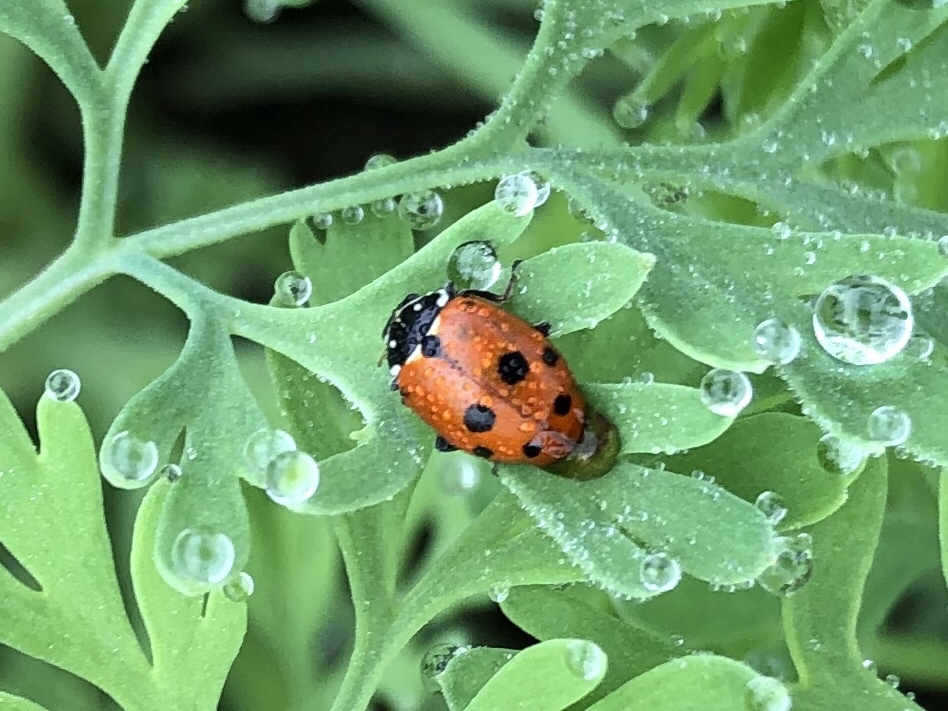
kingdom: Animalia
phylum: Arthropoda
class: Insecta
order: Coleoptera
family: Coccinellidae
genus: Hippodamia
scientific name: Hippodamia variegata
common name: Ladybird beetle
